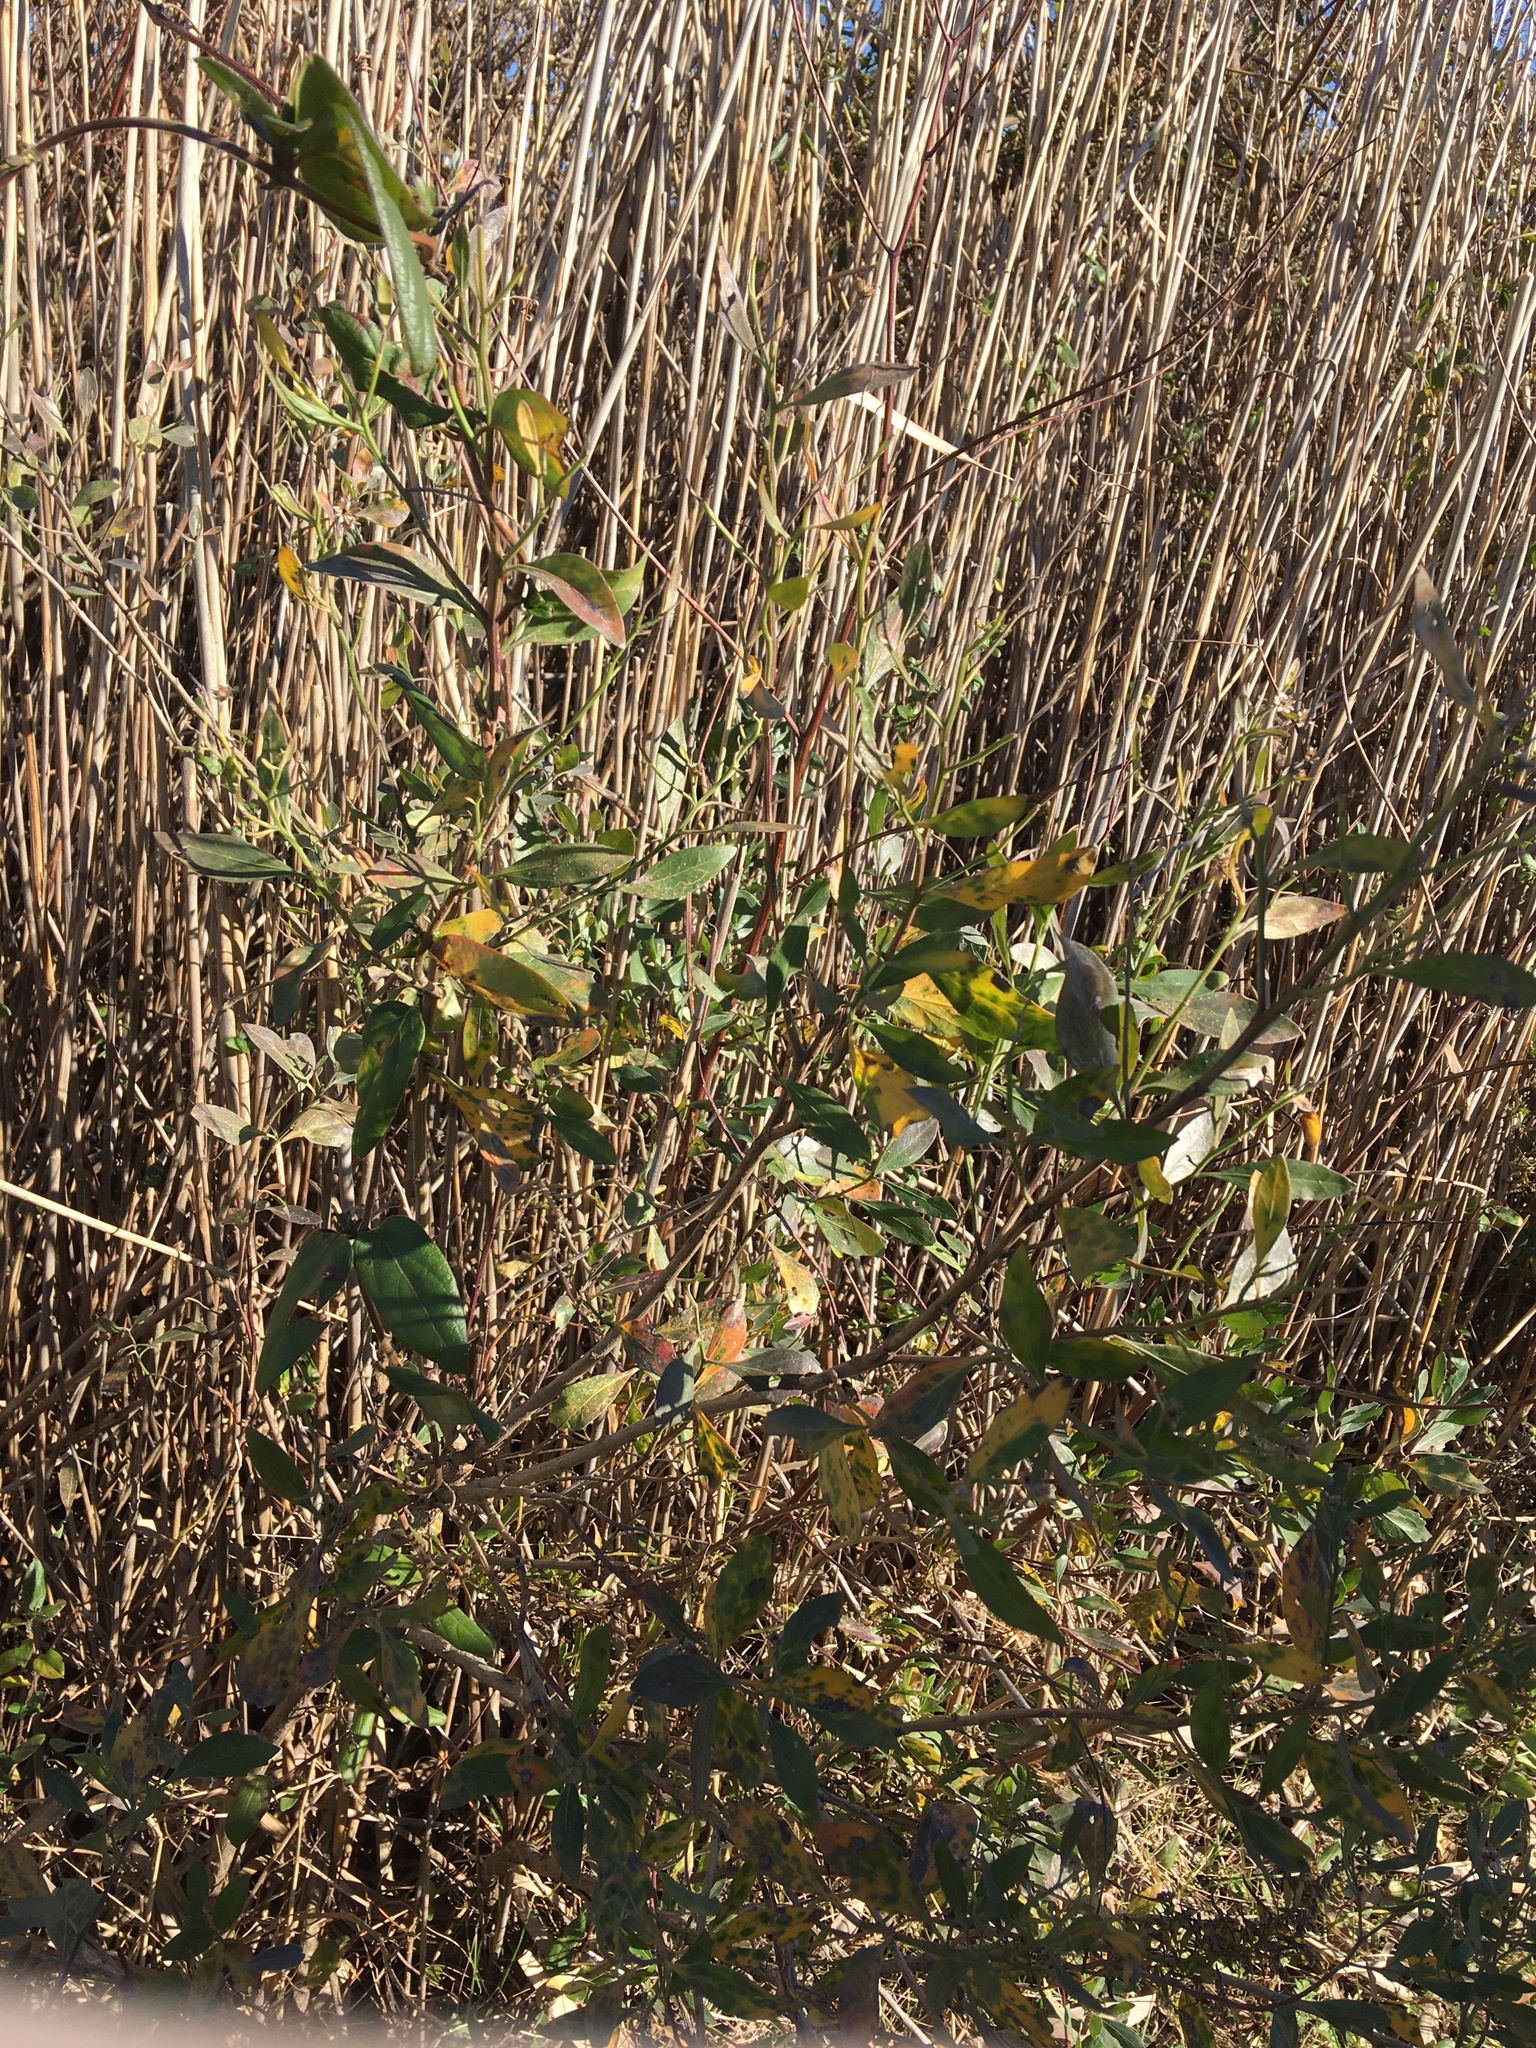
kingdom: Plantae
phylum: Tracheophyta
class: Magnoliopsida
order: Asterales
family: Asteraceae
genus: Baccharis
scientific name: Baccharis halimifolia
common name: Eastern baccharis
